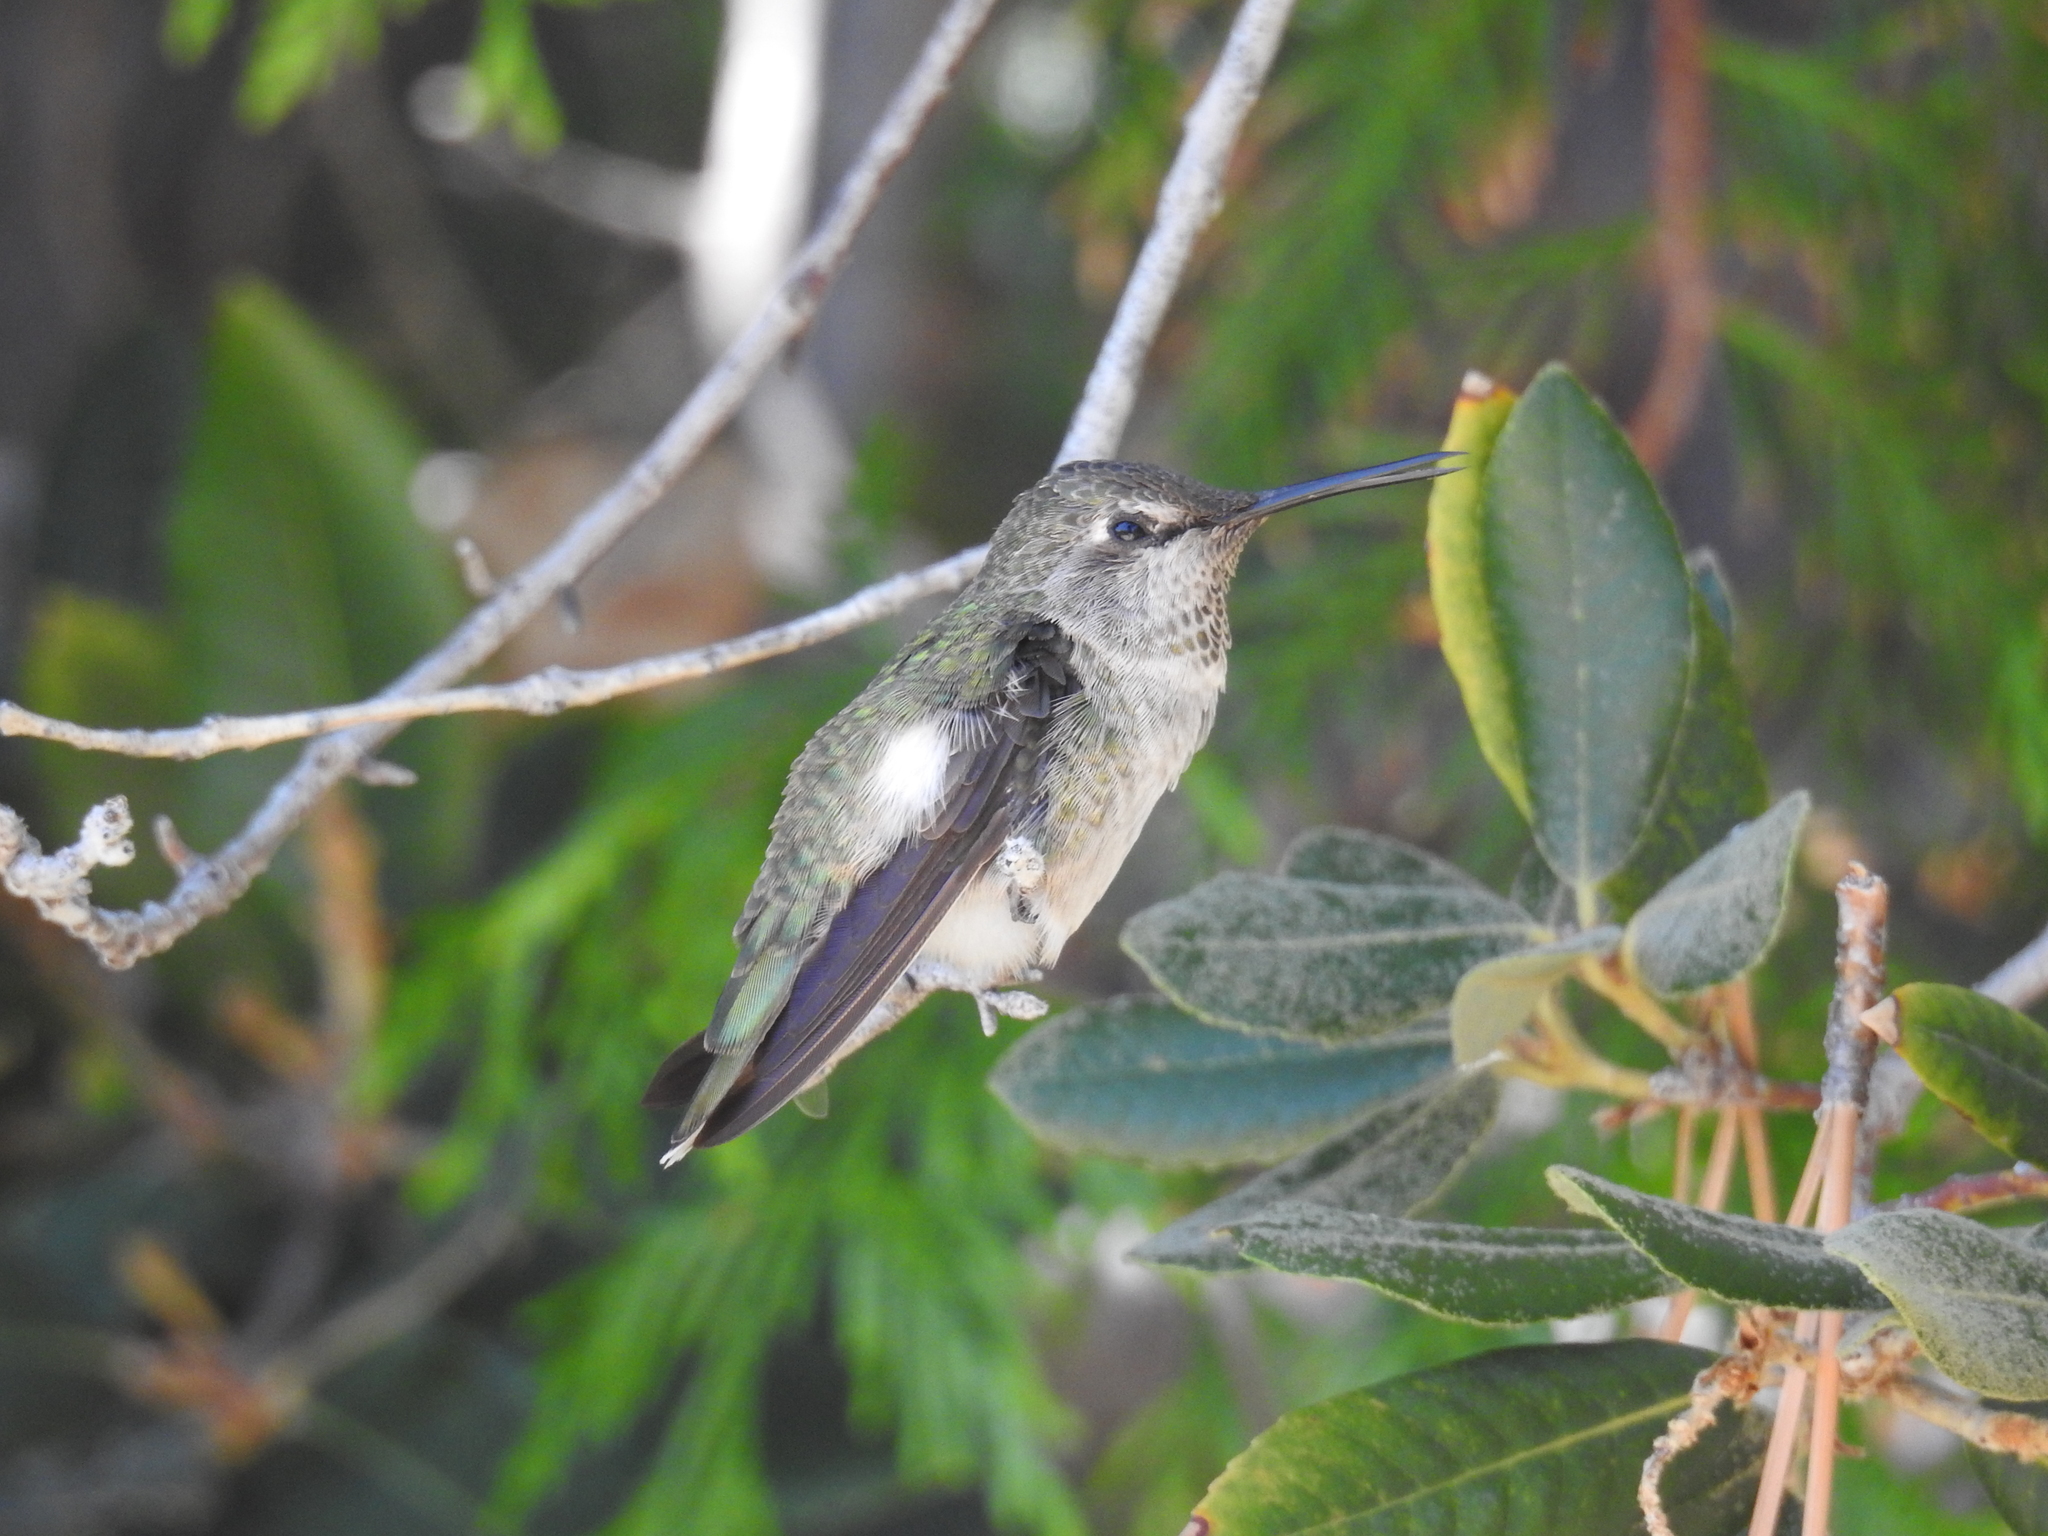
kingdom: Animalia
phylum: Chordata
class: Aves
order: Apodiformes
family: Trochilidae
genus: Calypte
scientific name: Calypte anna
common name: Anna's hummingbird
